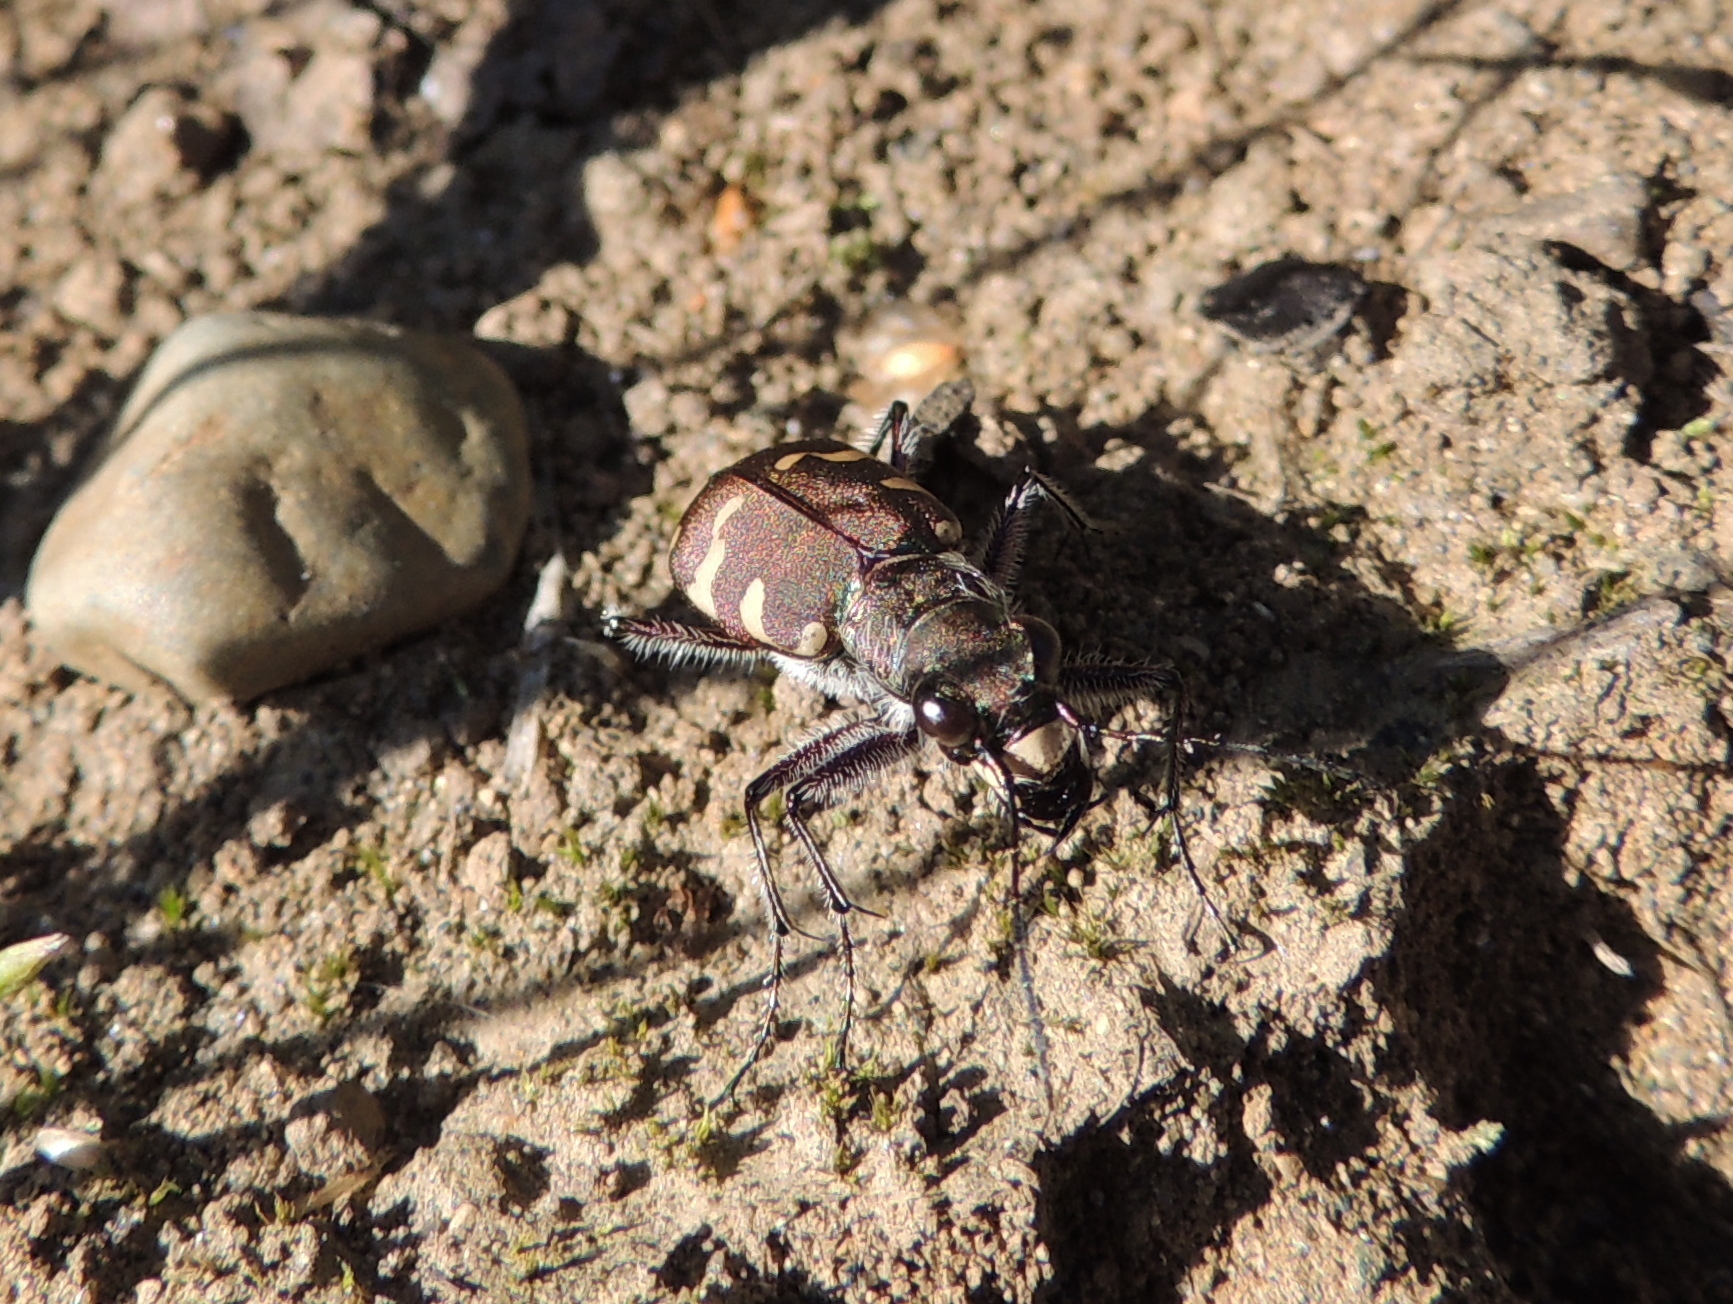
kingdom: Animalia
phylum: Arthropoda
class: Insecta
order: Coleoptera
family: Carabidae
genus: Cicindela
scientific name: Cicindela hybrida
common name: Northern dune tiger beetle
